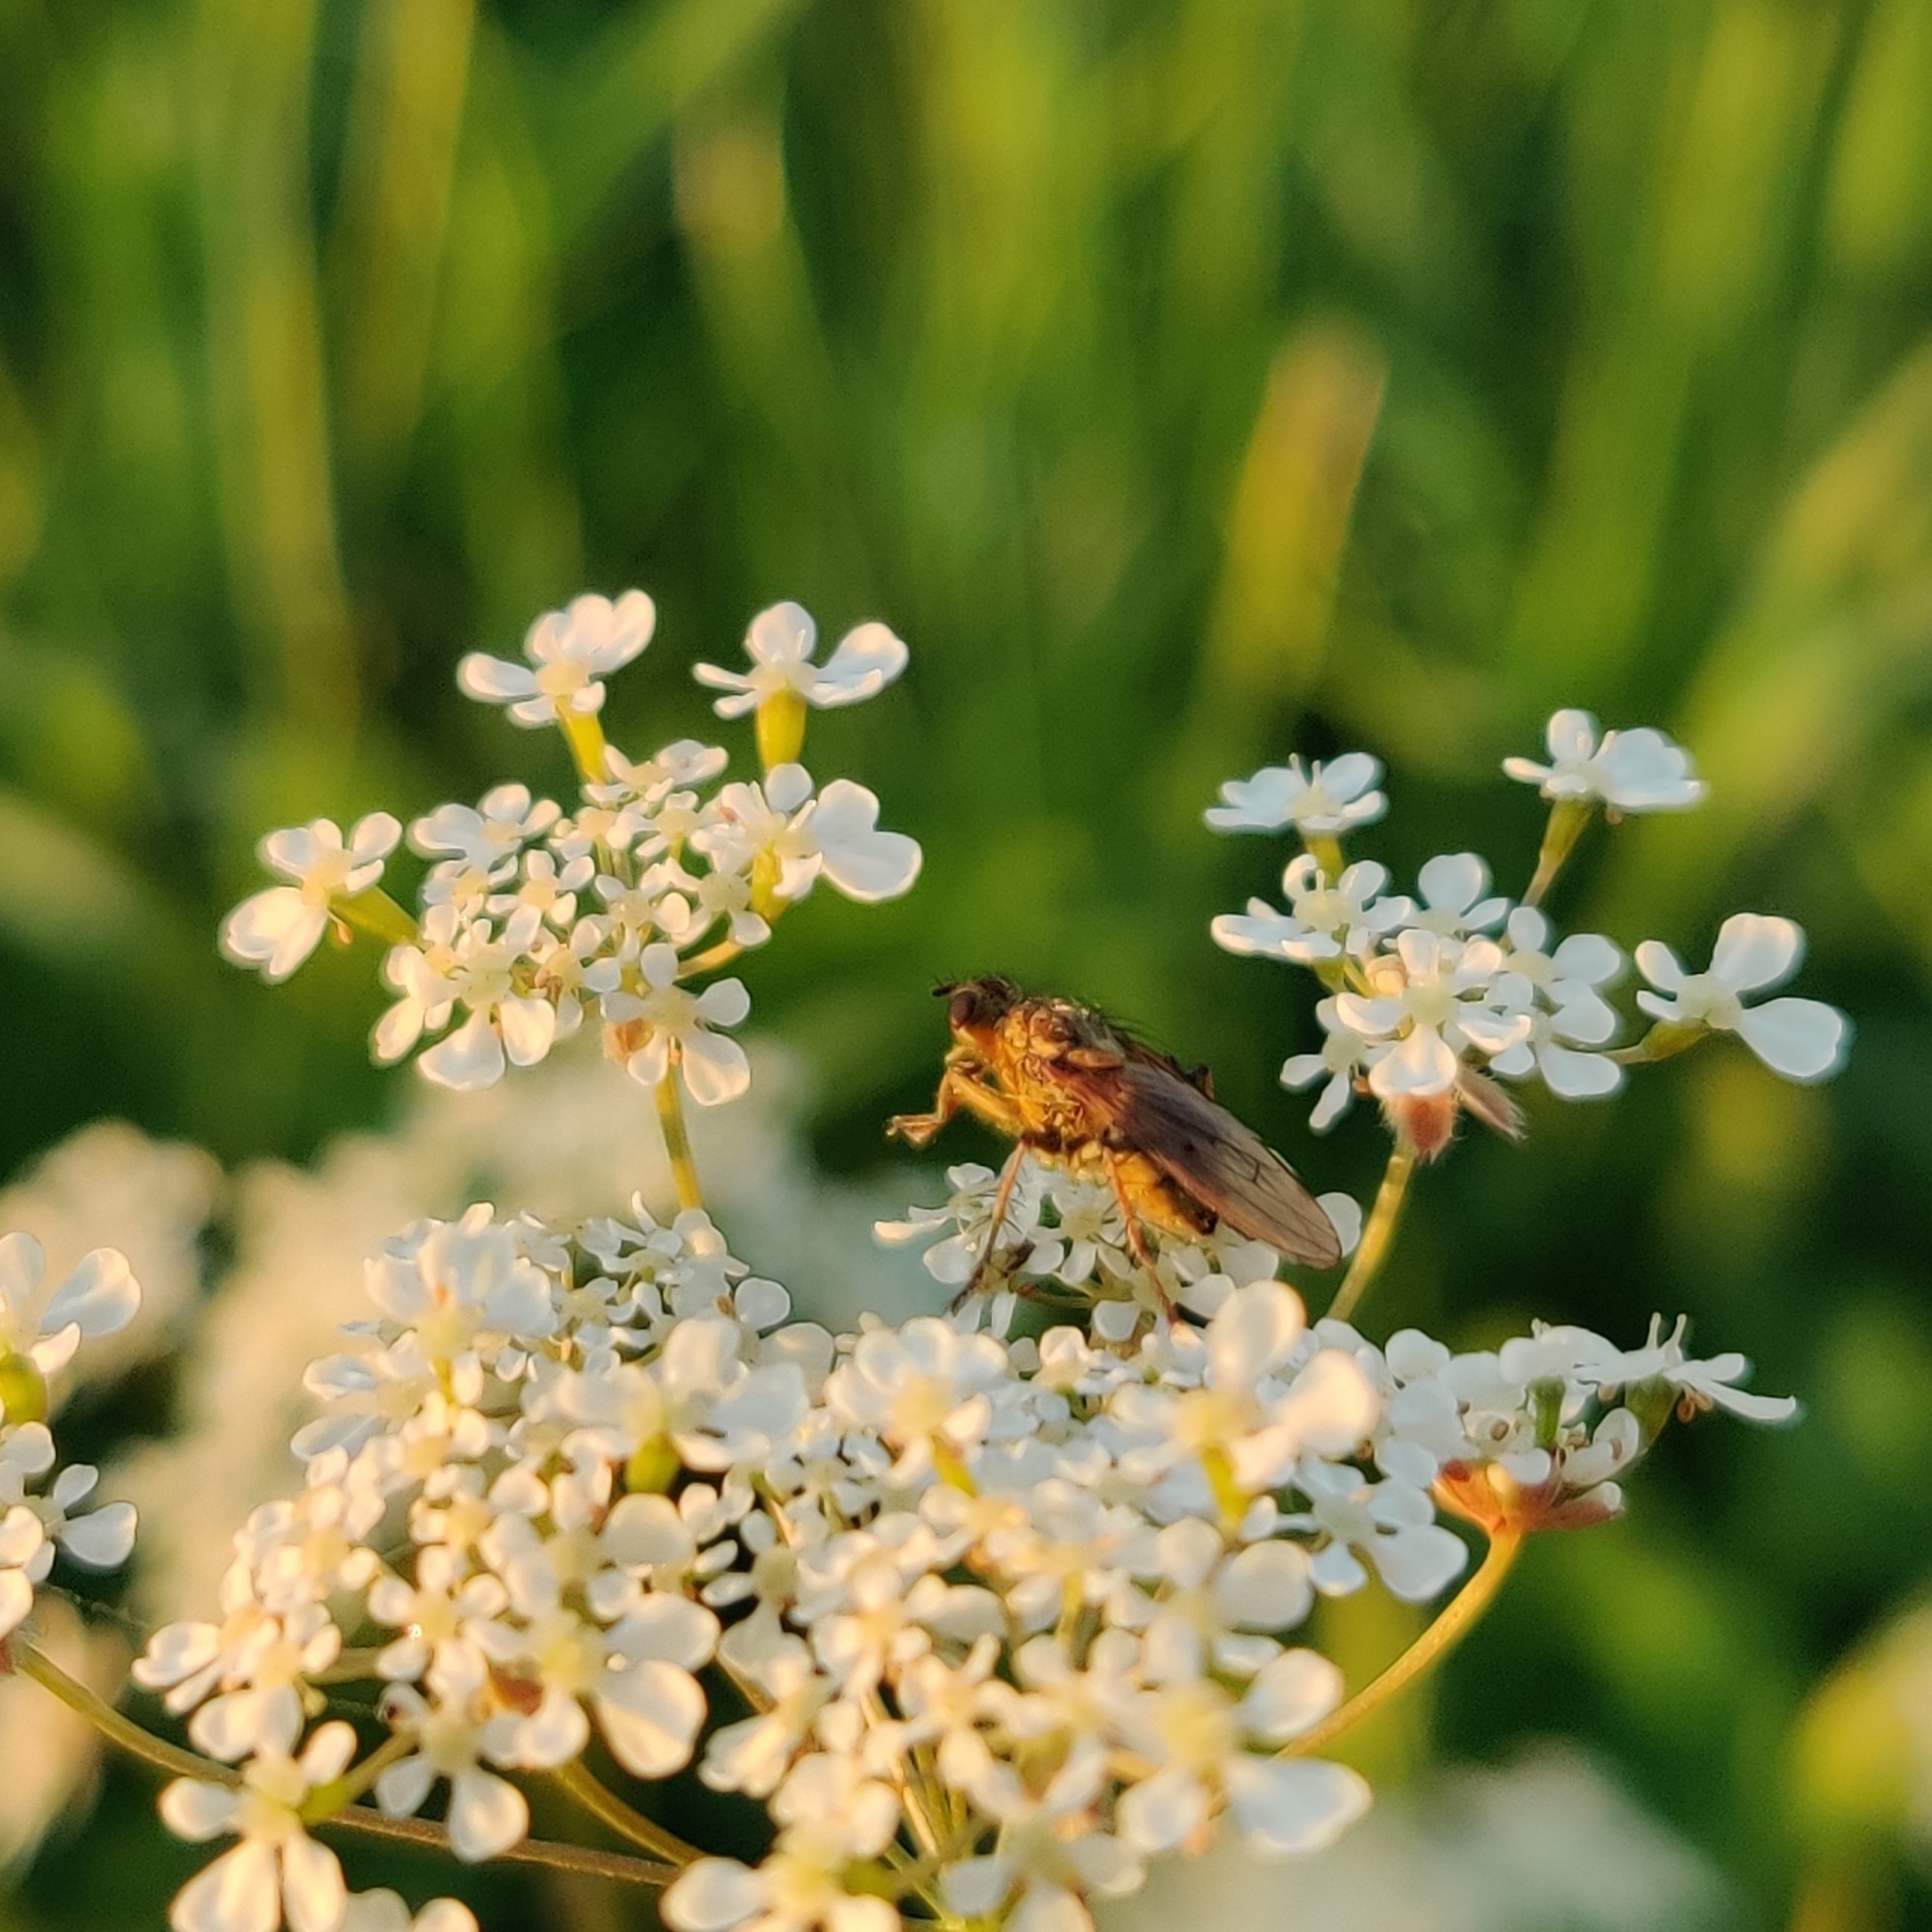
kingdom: Animalia
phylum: Arthropoda
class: Insecta
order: Diptera
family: Scathophagidae
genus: Scathophaga
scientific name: Scathophaga stercoraria
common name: Yellow dung fly
